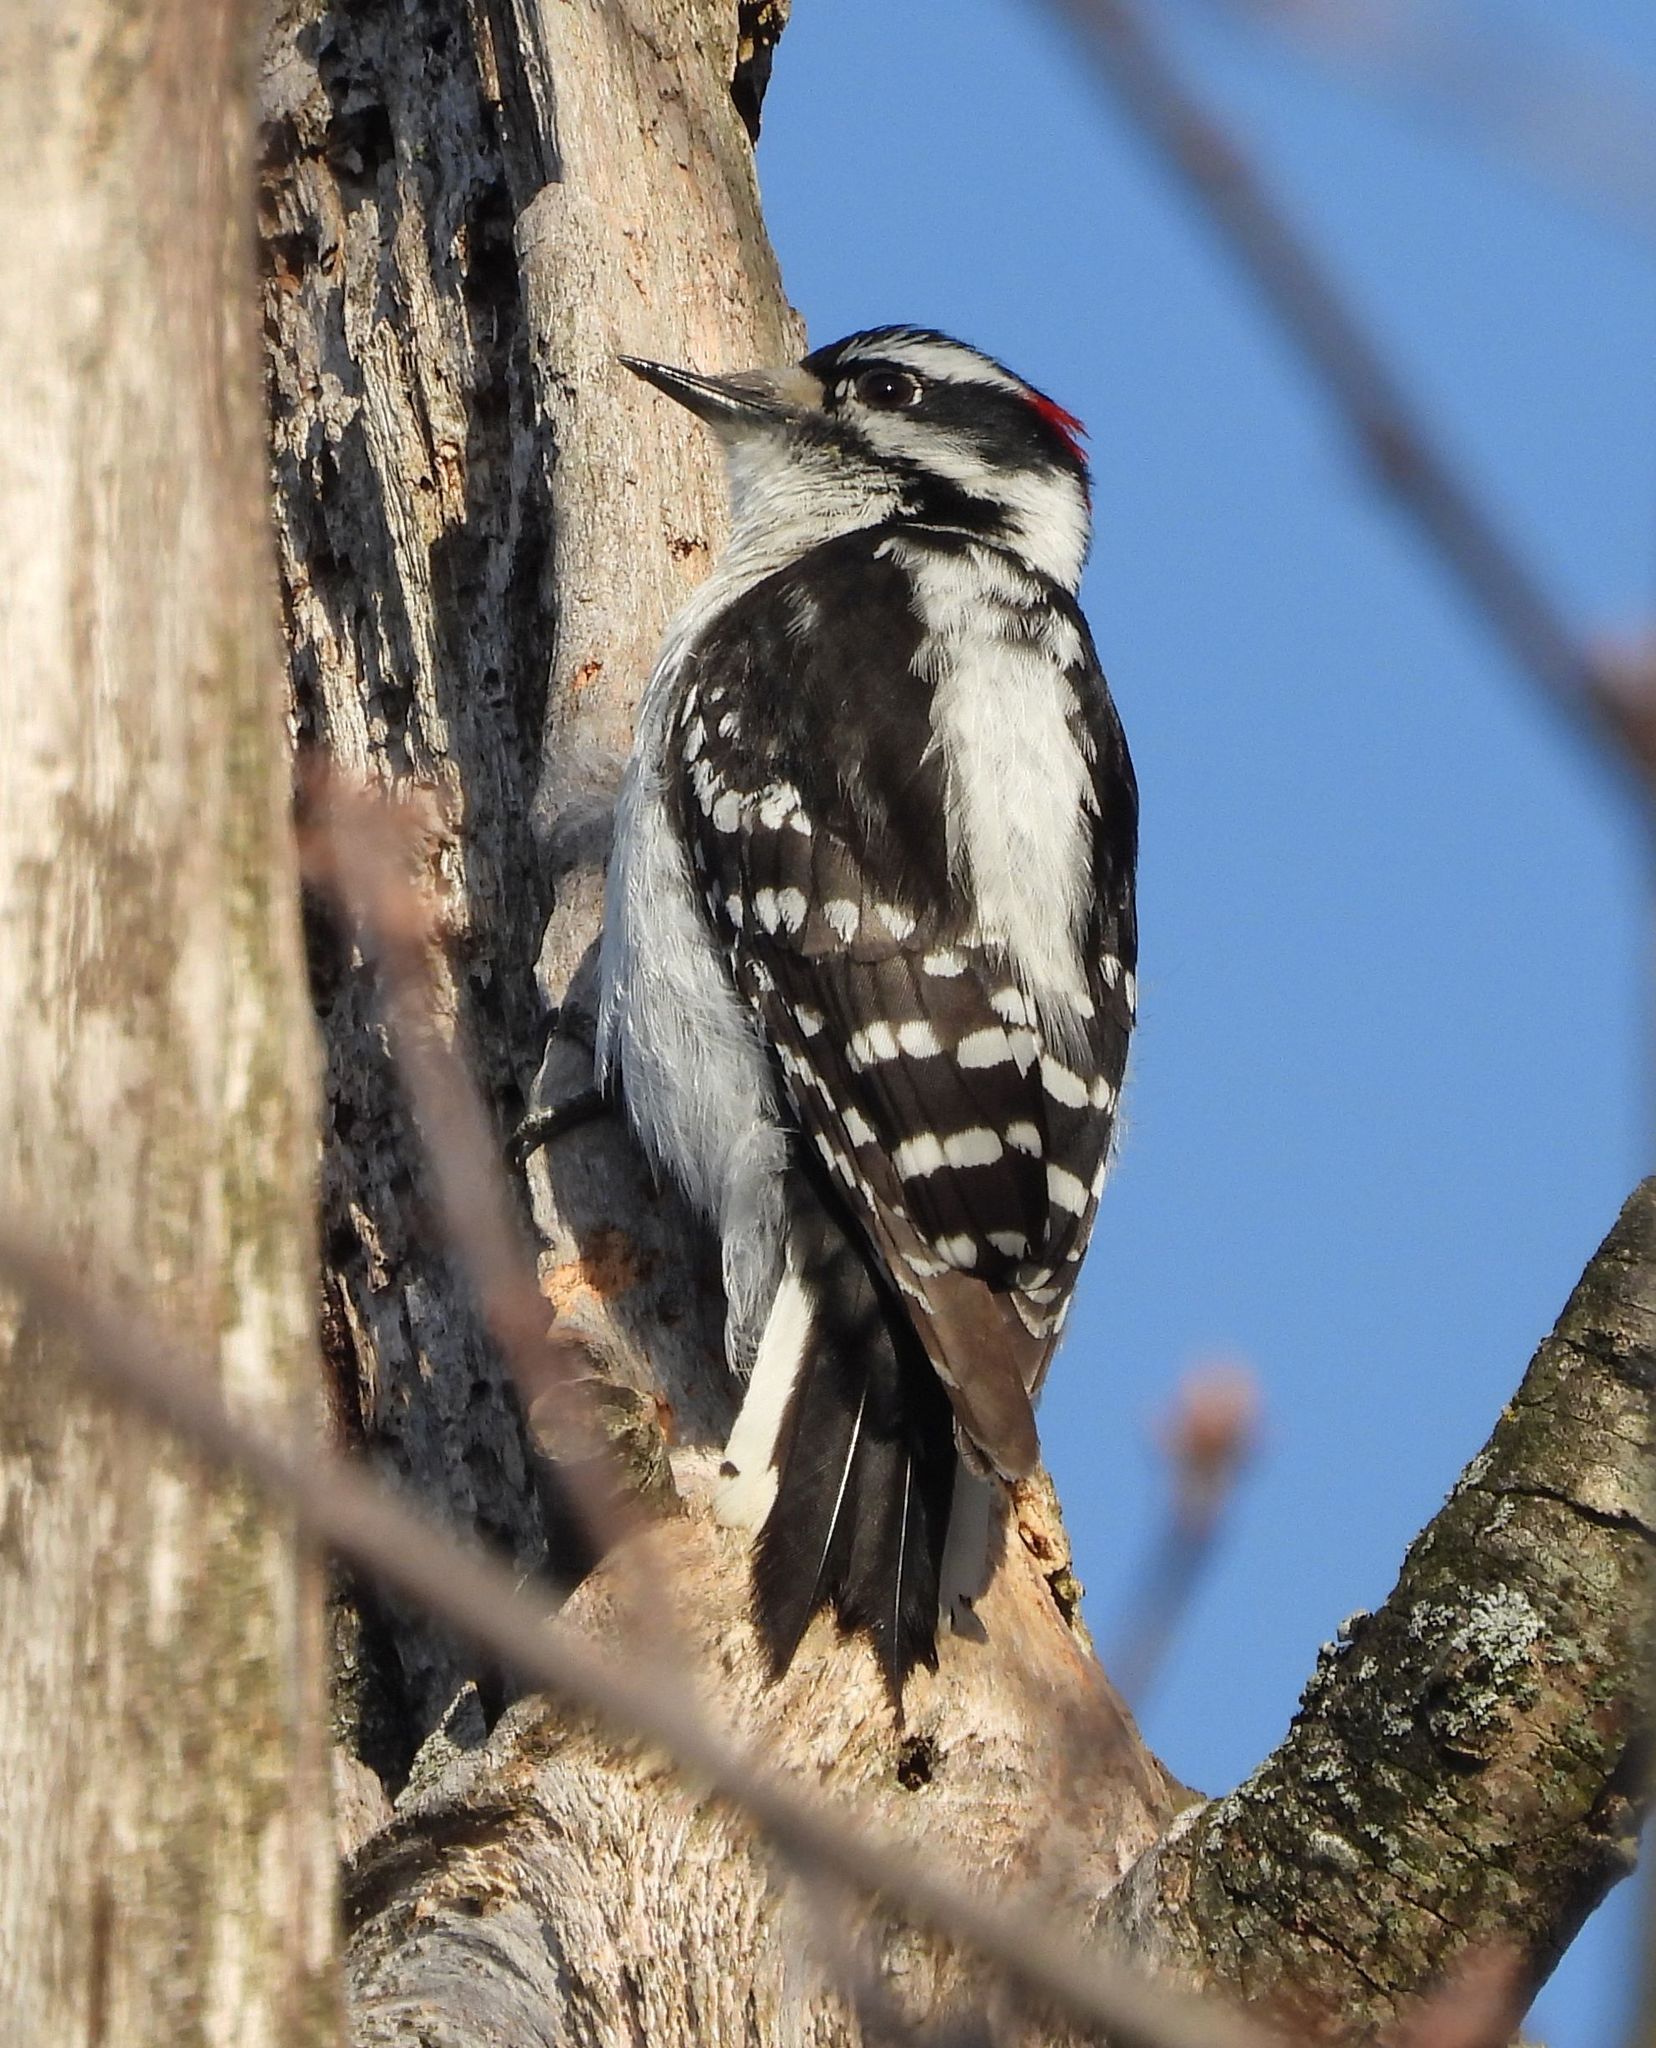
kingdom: Animalia
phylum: Chordata
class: Aves
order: Piciformes
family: Picidae
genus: Dryobates
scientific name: Dryobates pubescens
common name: Downy woodpecker
